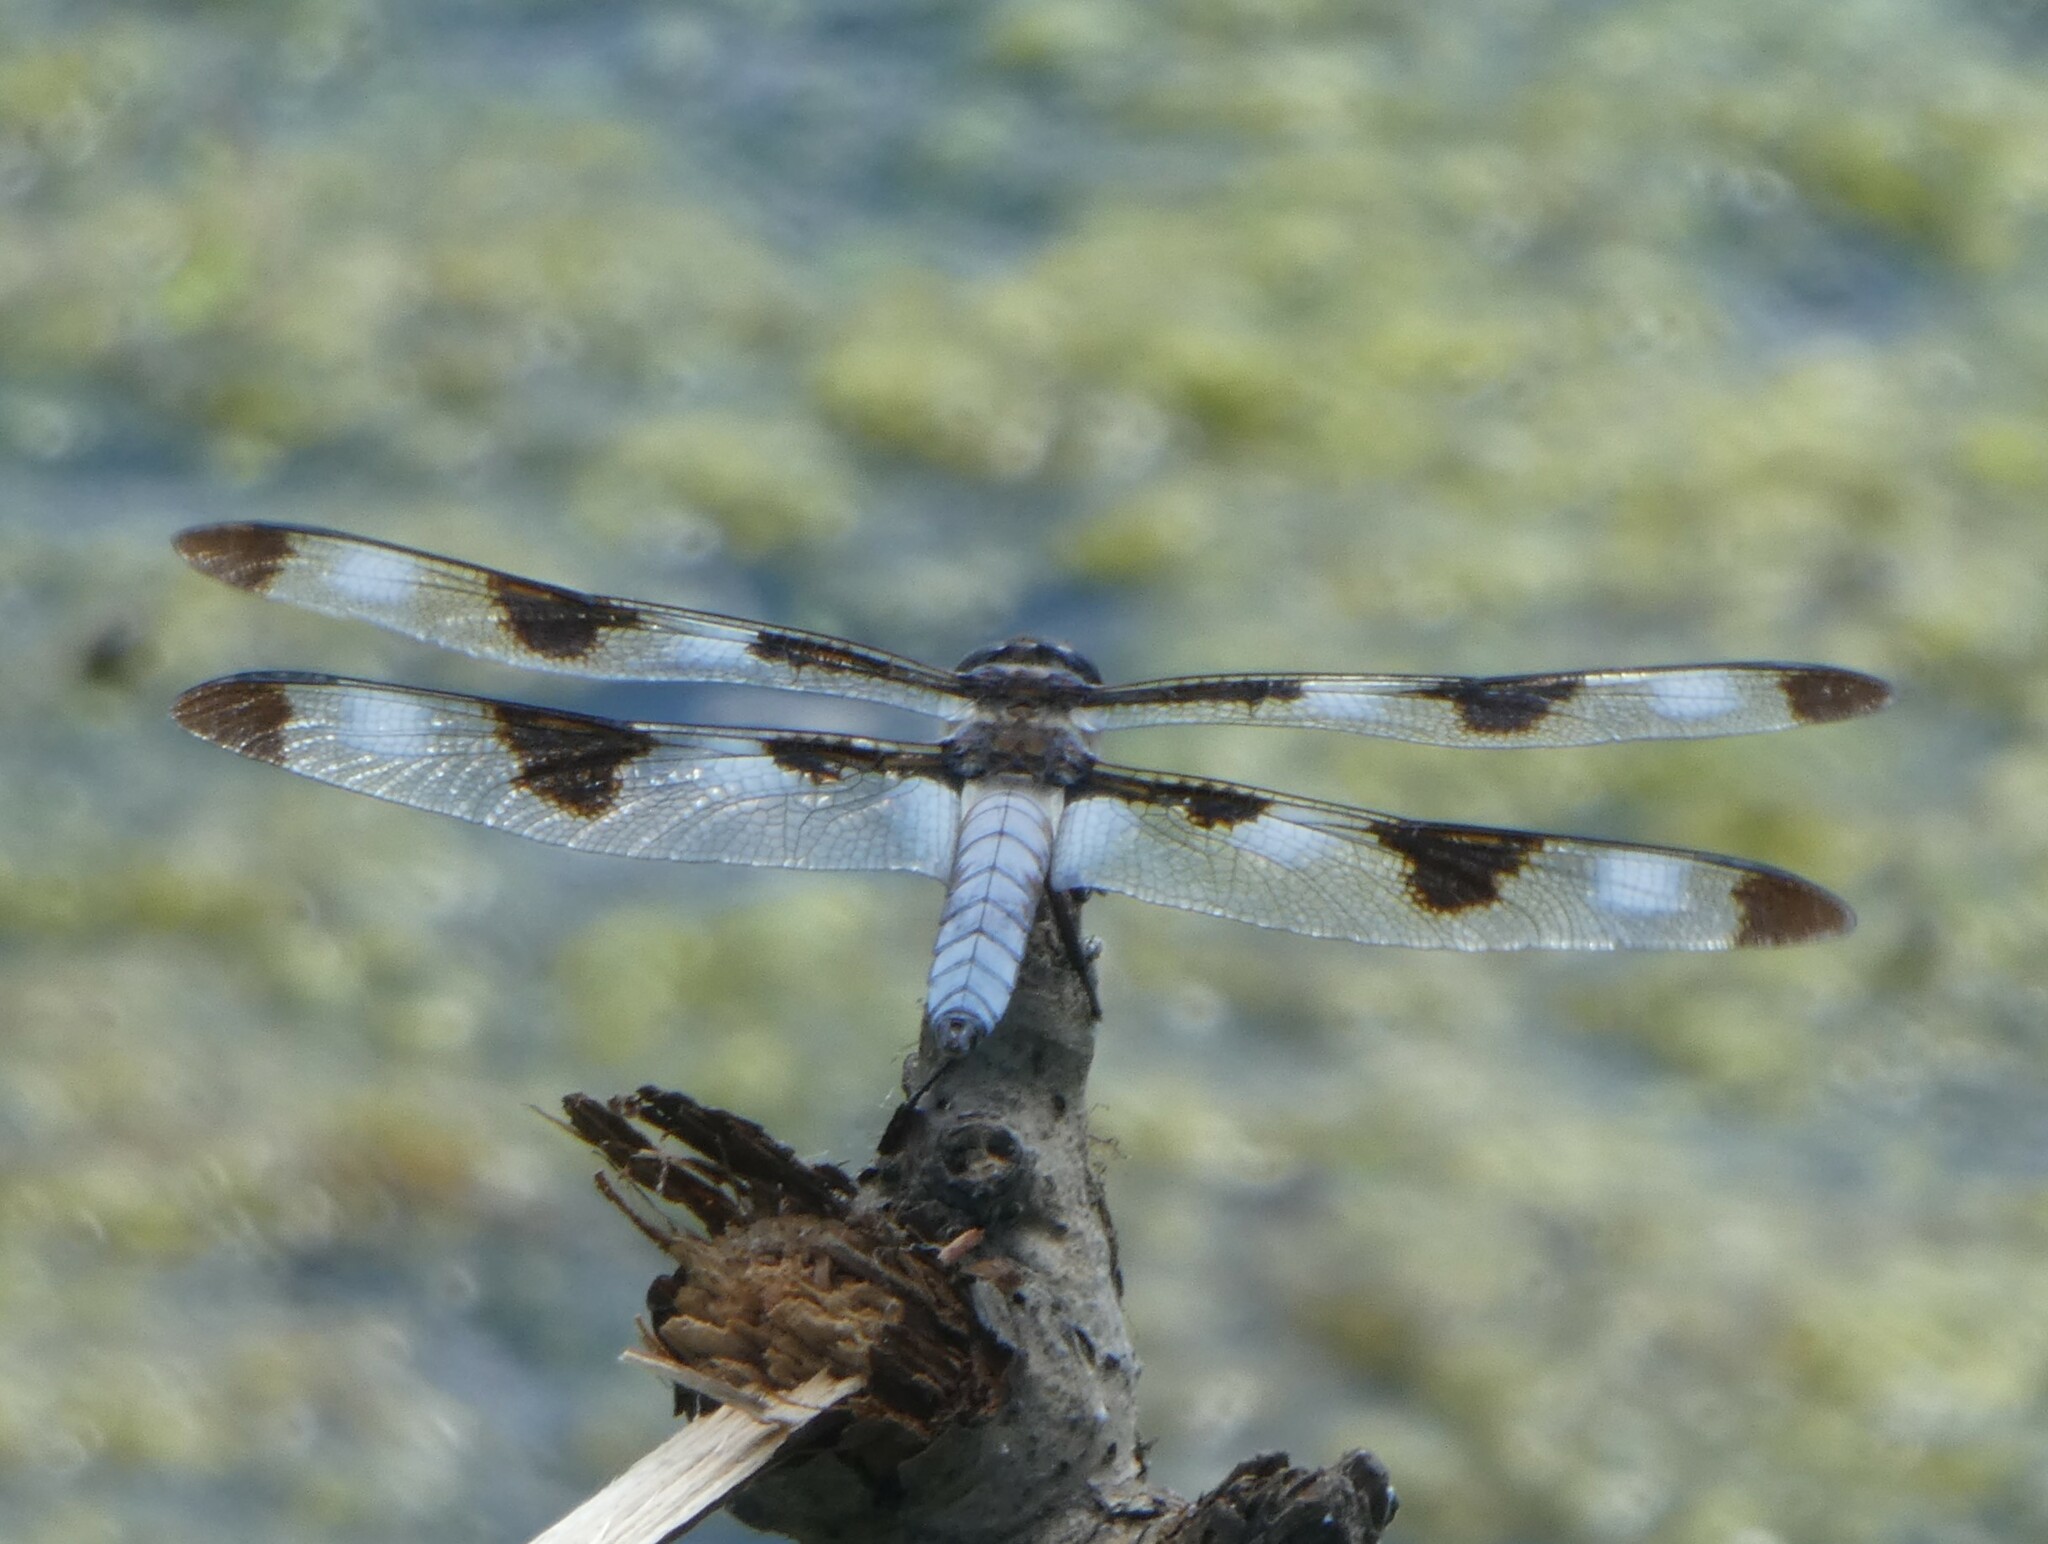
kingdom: Animalia
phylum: Arthropoda
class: Insecta
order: Odonata
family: Libellulidae
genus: Libellula
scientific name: Libellula pulchella
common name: Twelve-spotted skimmer
